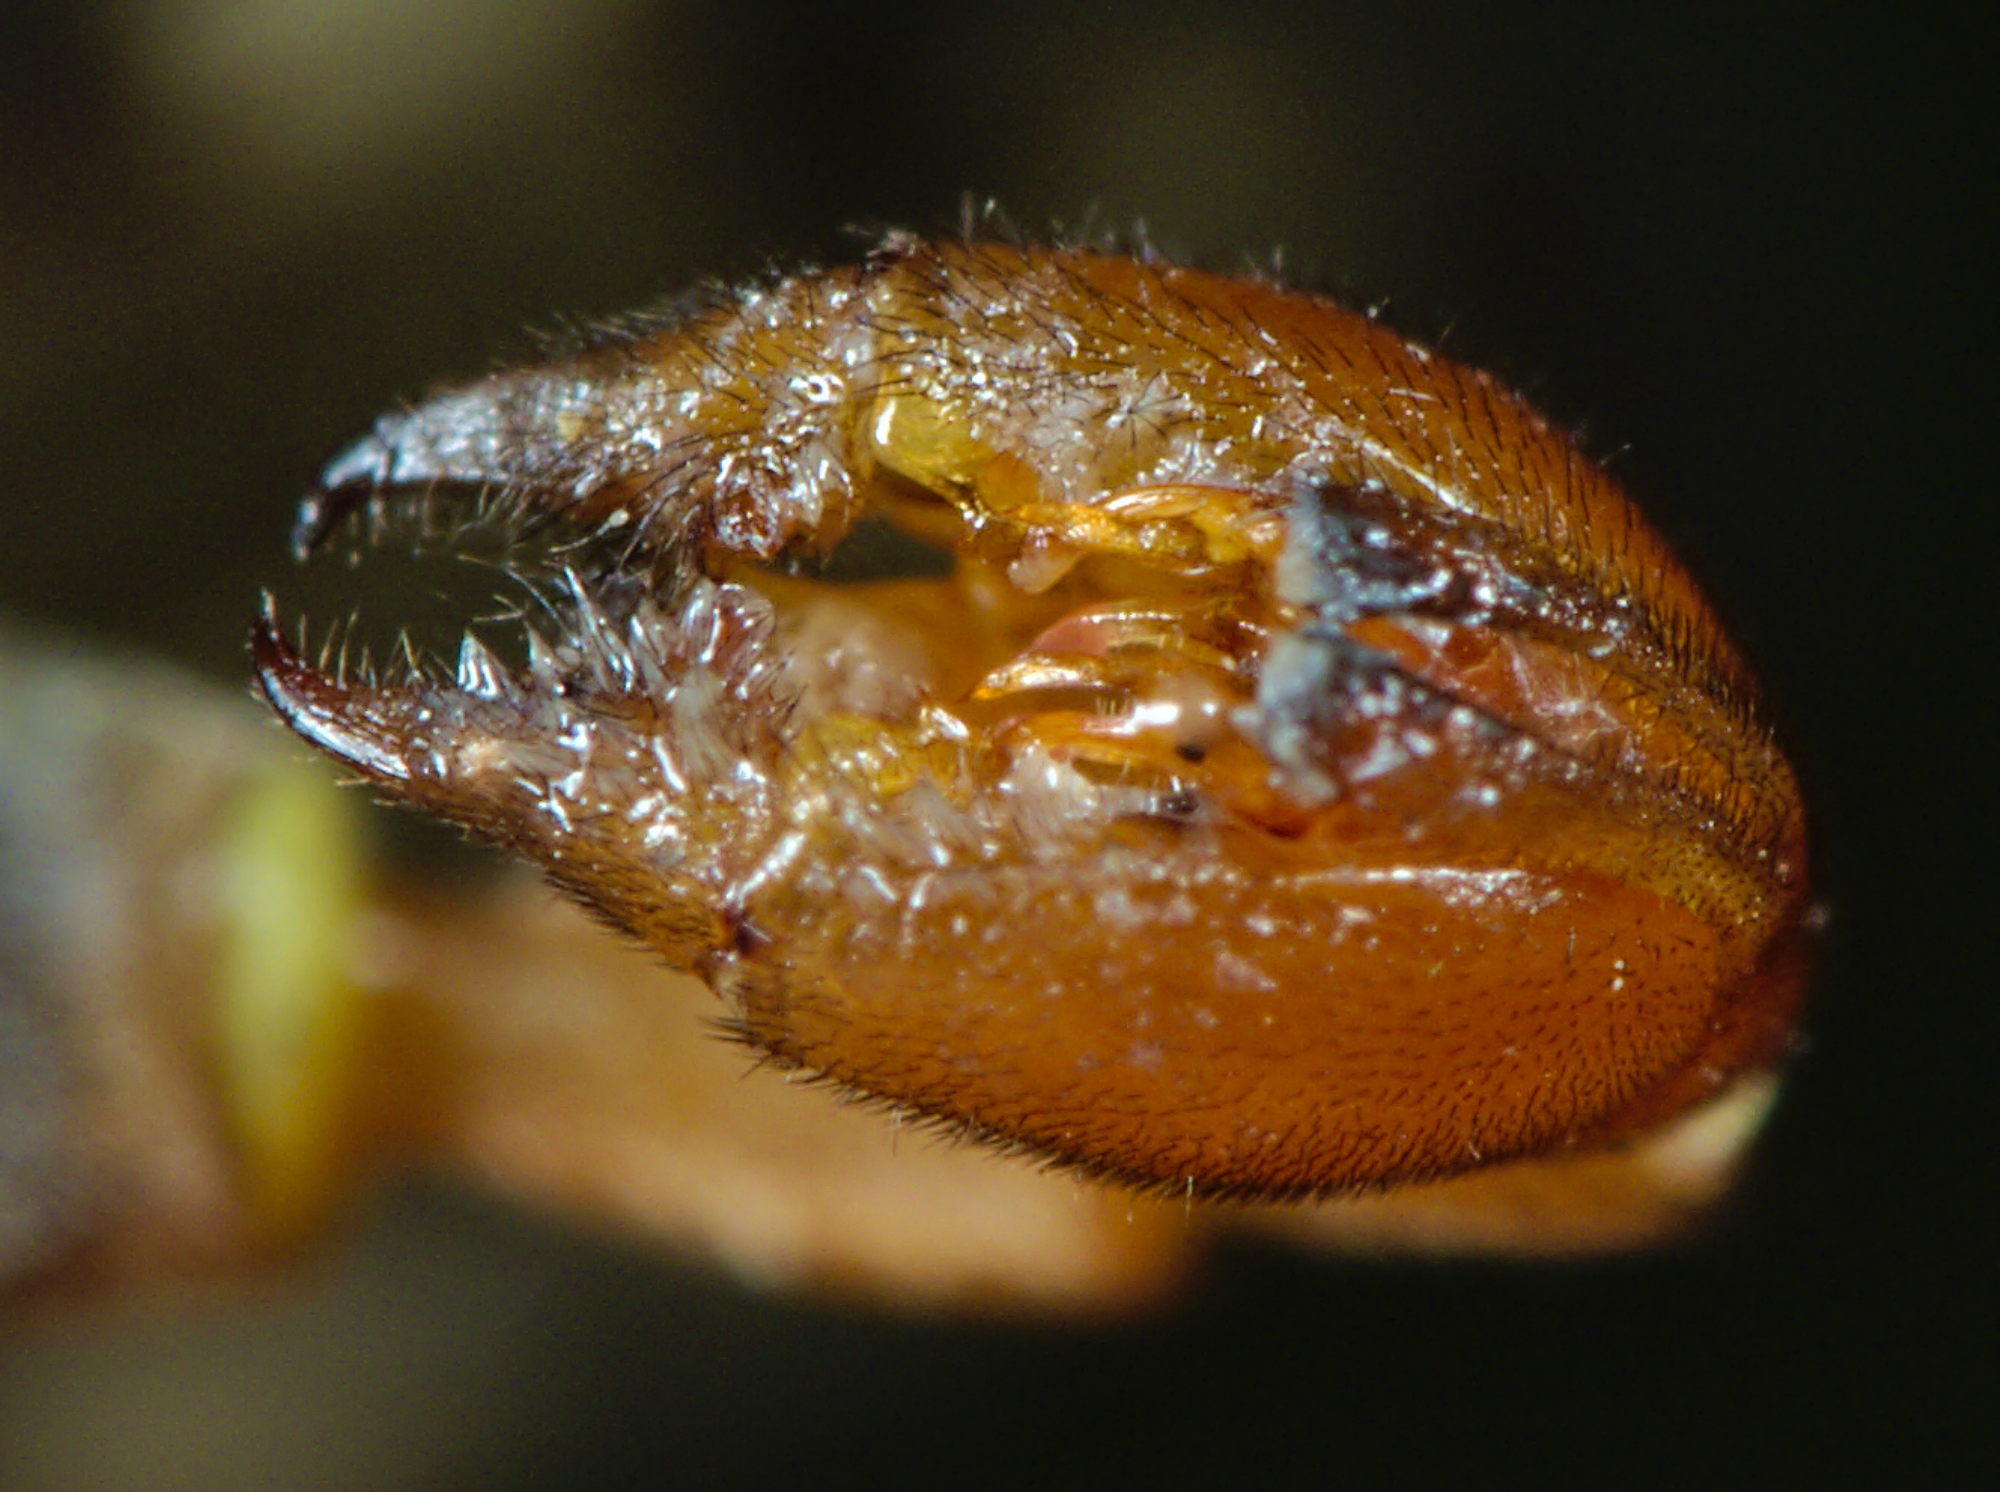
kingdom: Animalia
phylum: Arthropoda
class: Insecta
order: Mecoptera
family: Panorpidae
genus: Panorpa
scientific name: Panorpa germanica
